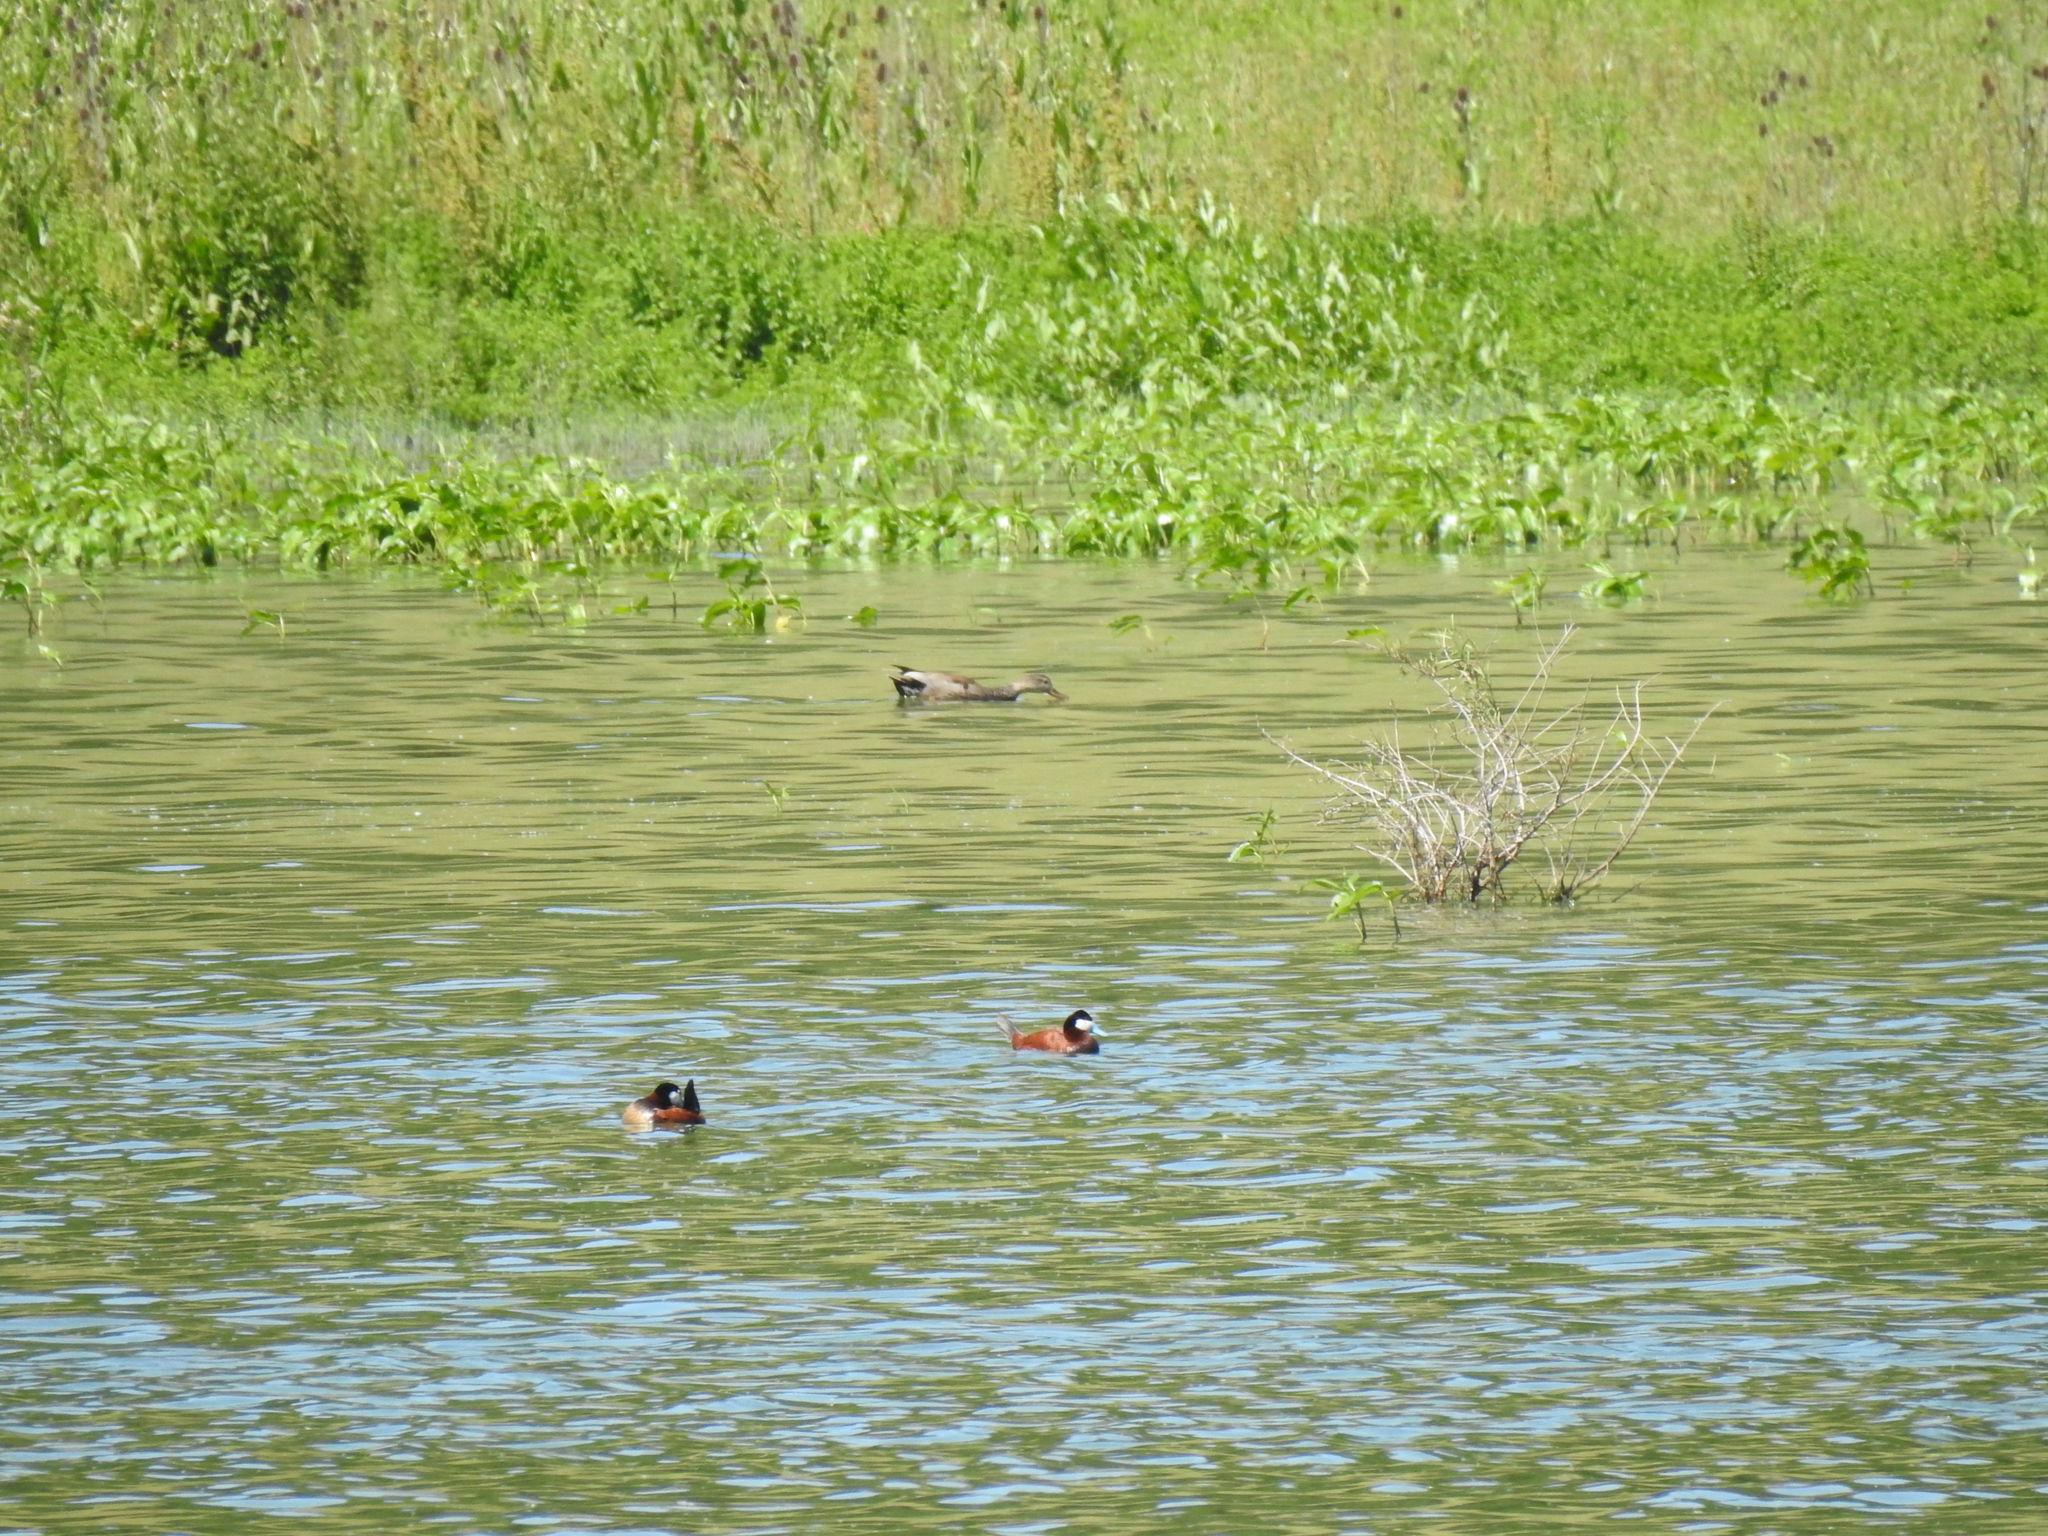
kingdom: Animalia
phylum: Chordata
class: Aves
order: Anseriformes
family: Anatidae
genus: Oxyura
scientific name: Oxyura jamaicensis
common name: Ruddy duck
